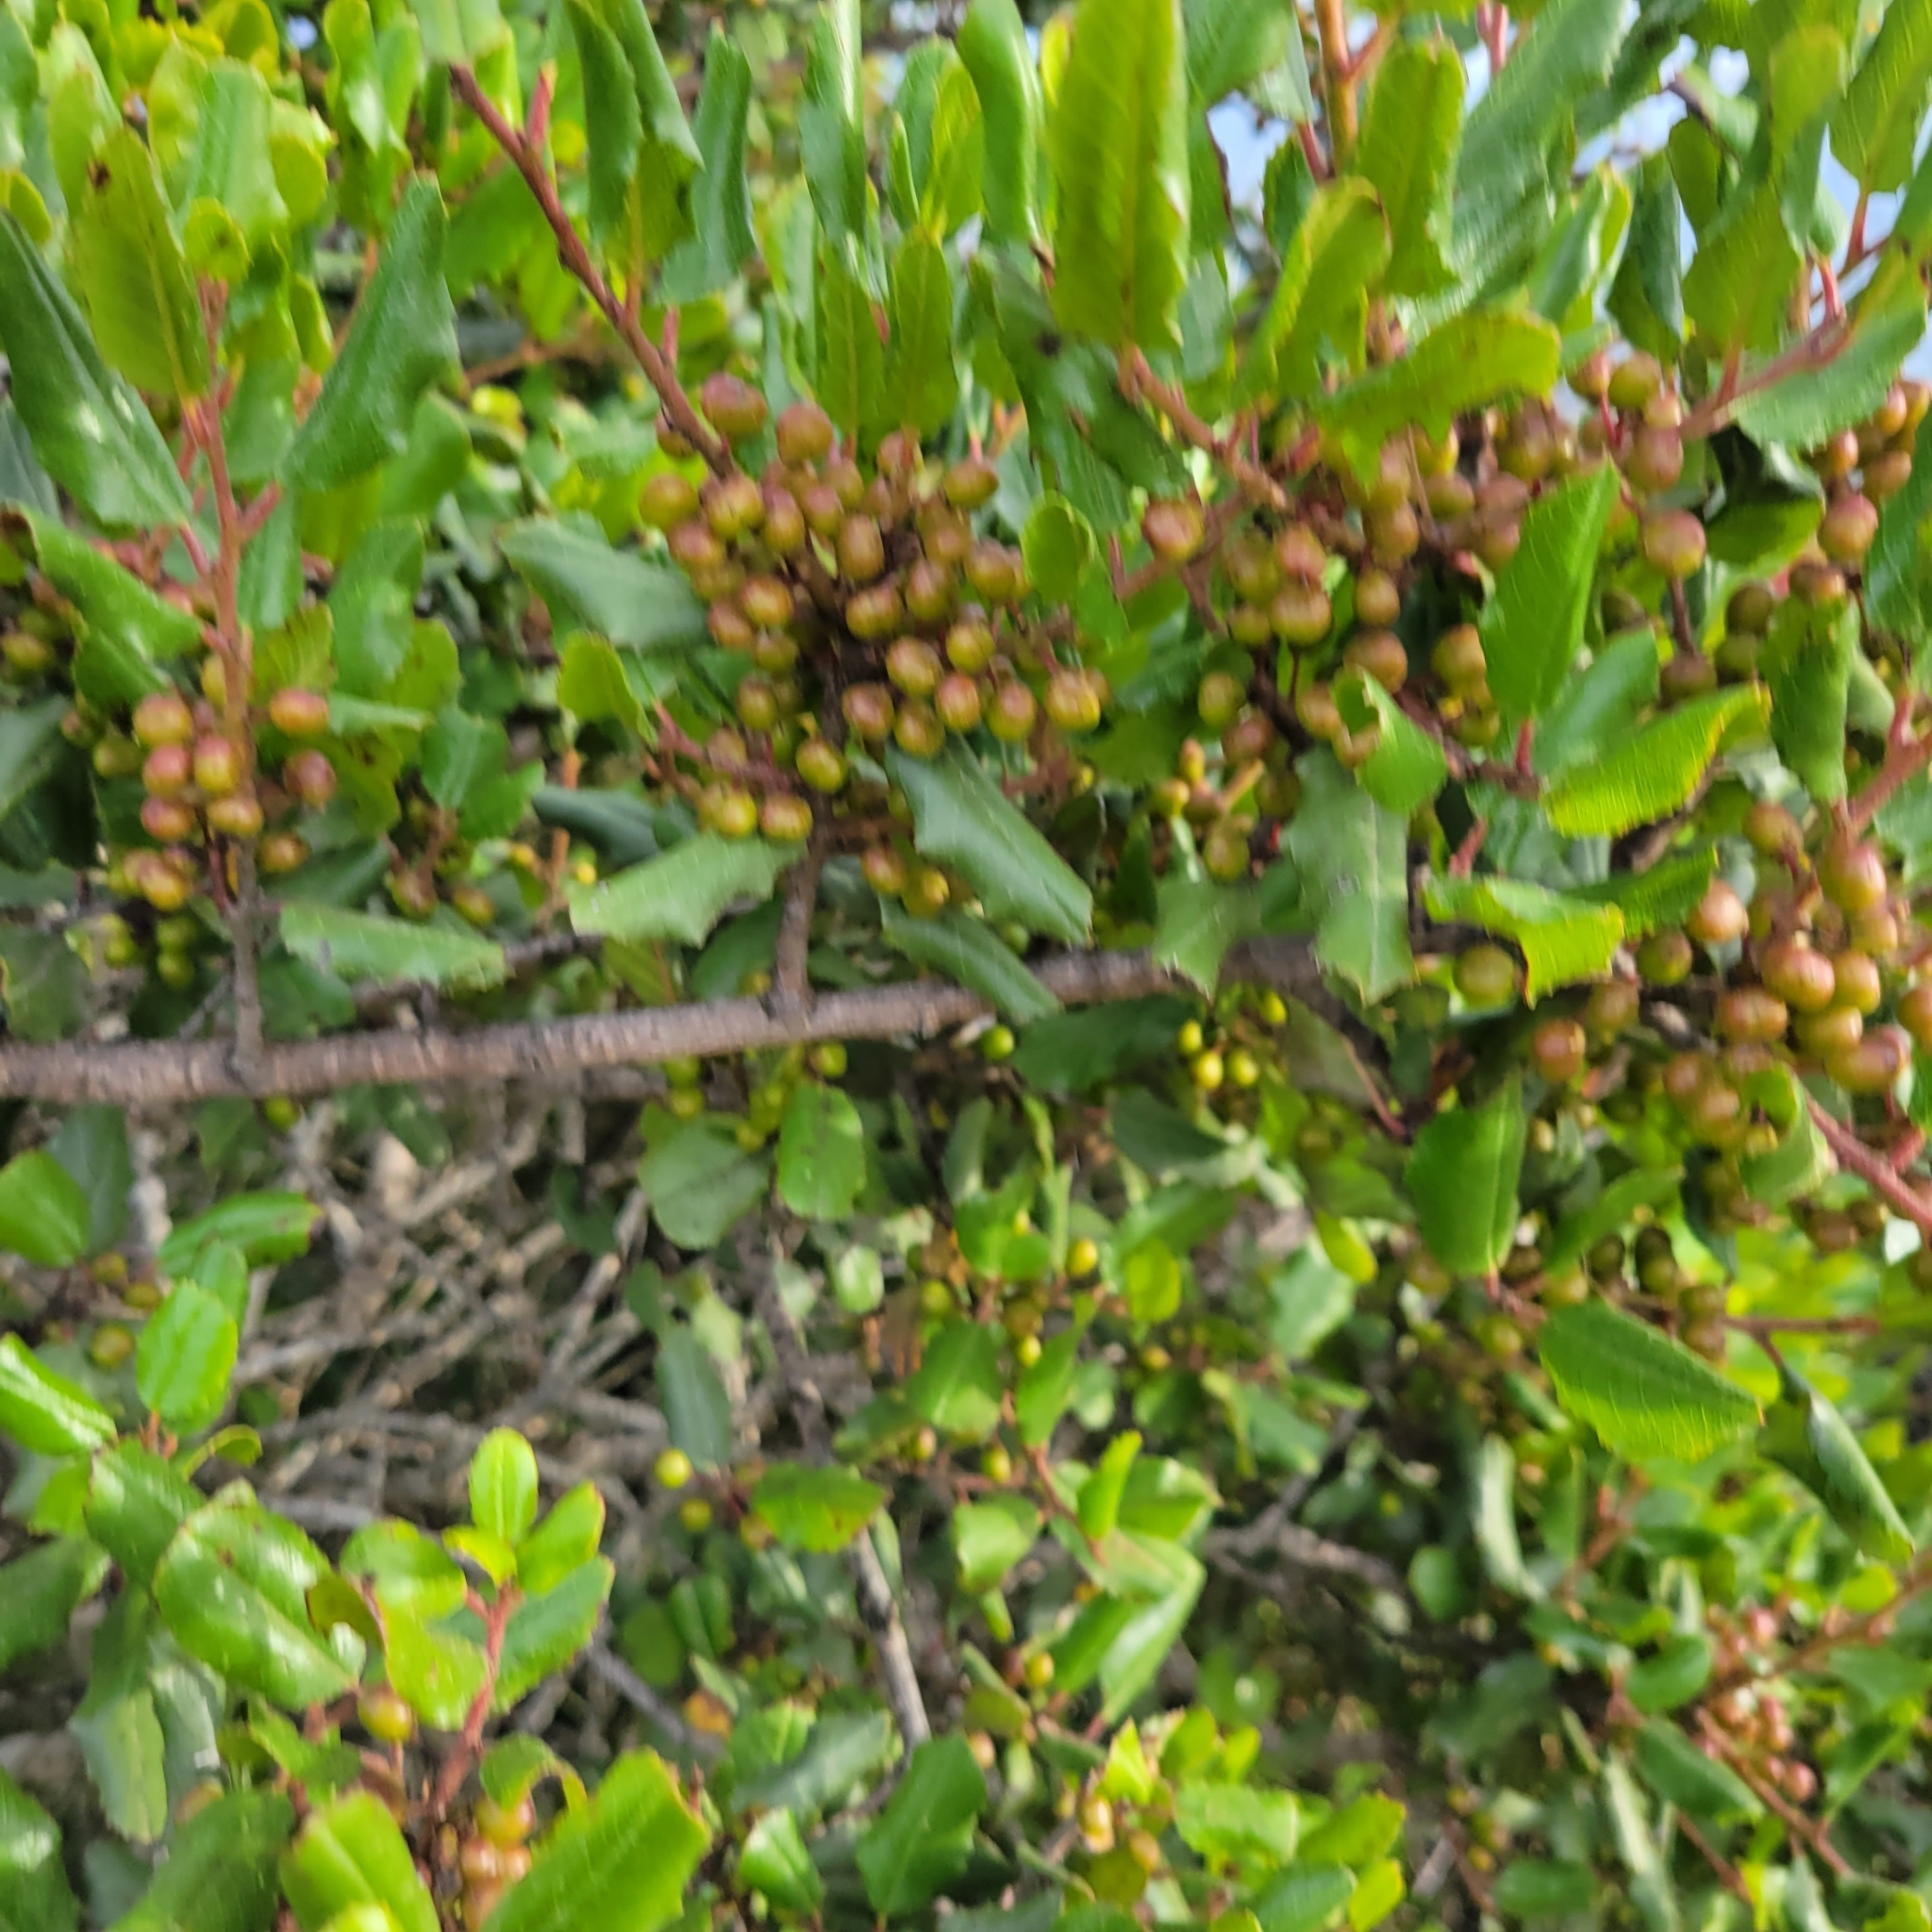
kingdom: Plantae
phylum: Tracheophyta
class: Magnoliopsida
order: Rosales
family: Rhamnaceae
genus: Endotropis
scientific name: Endotropis crocea
